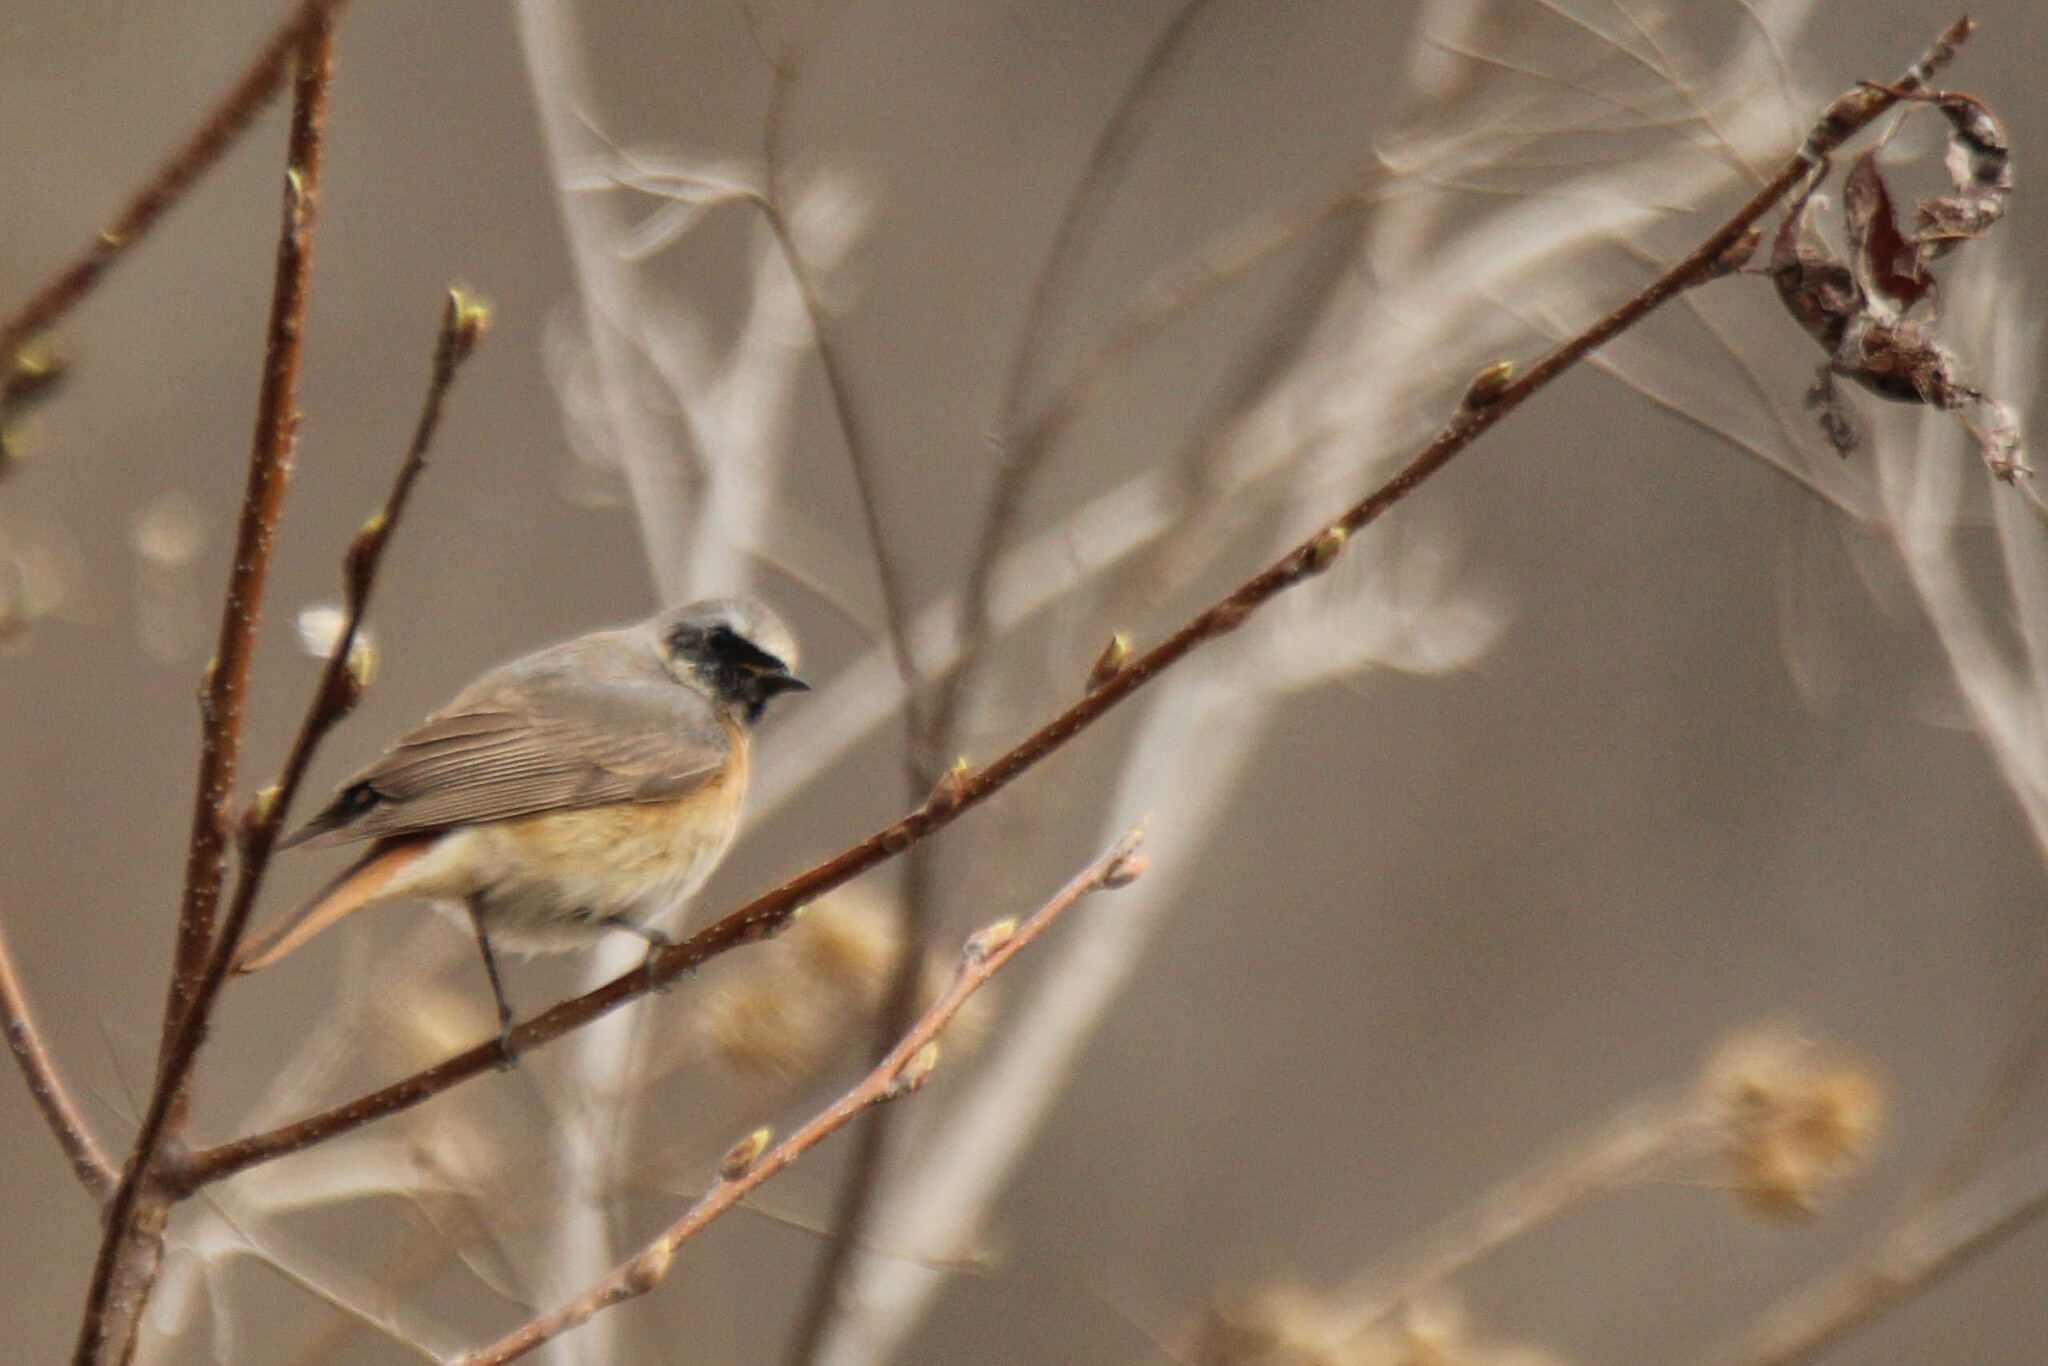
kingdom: Animalia
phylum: Chordata
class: Aves
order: Passeriformes
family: Muscicapidae
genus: Phoenicurus
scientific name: Phoenicurus phoenicurus
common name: Common redstart
